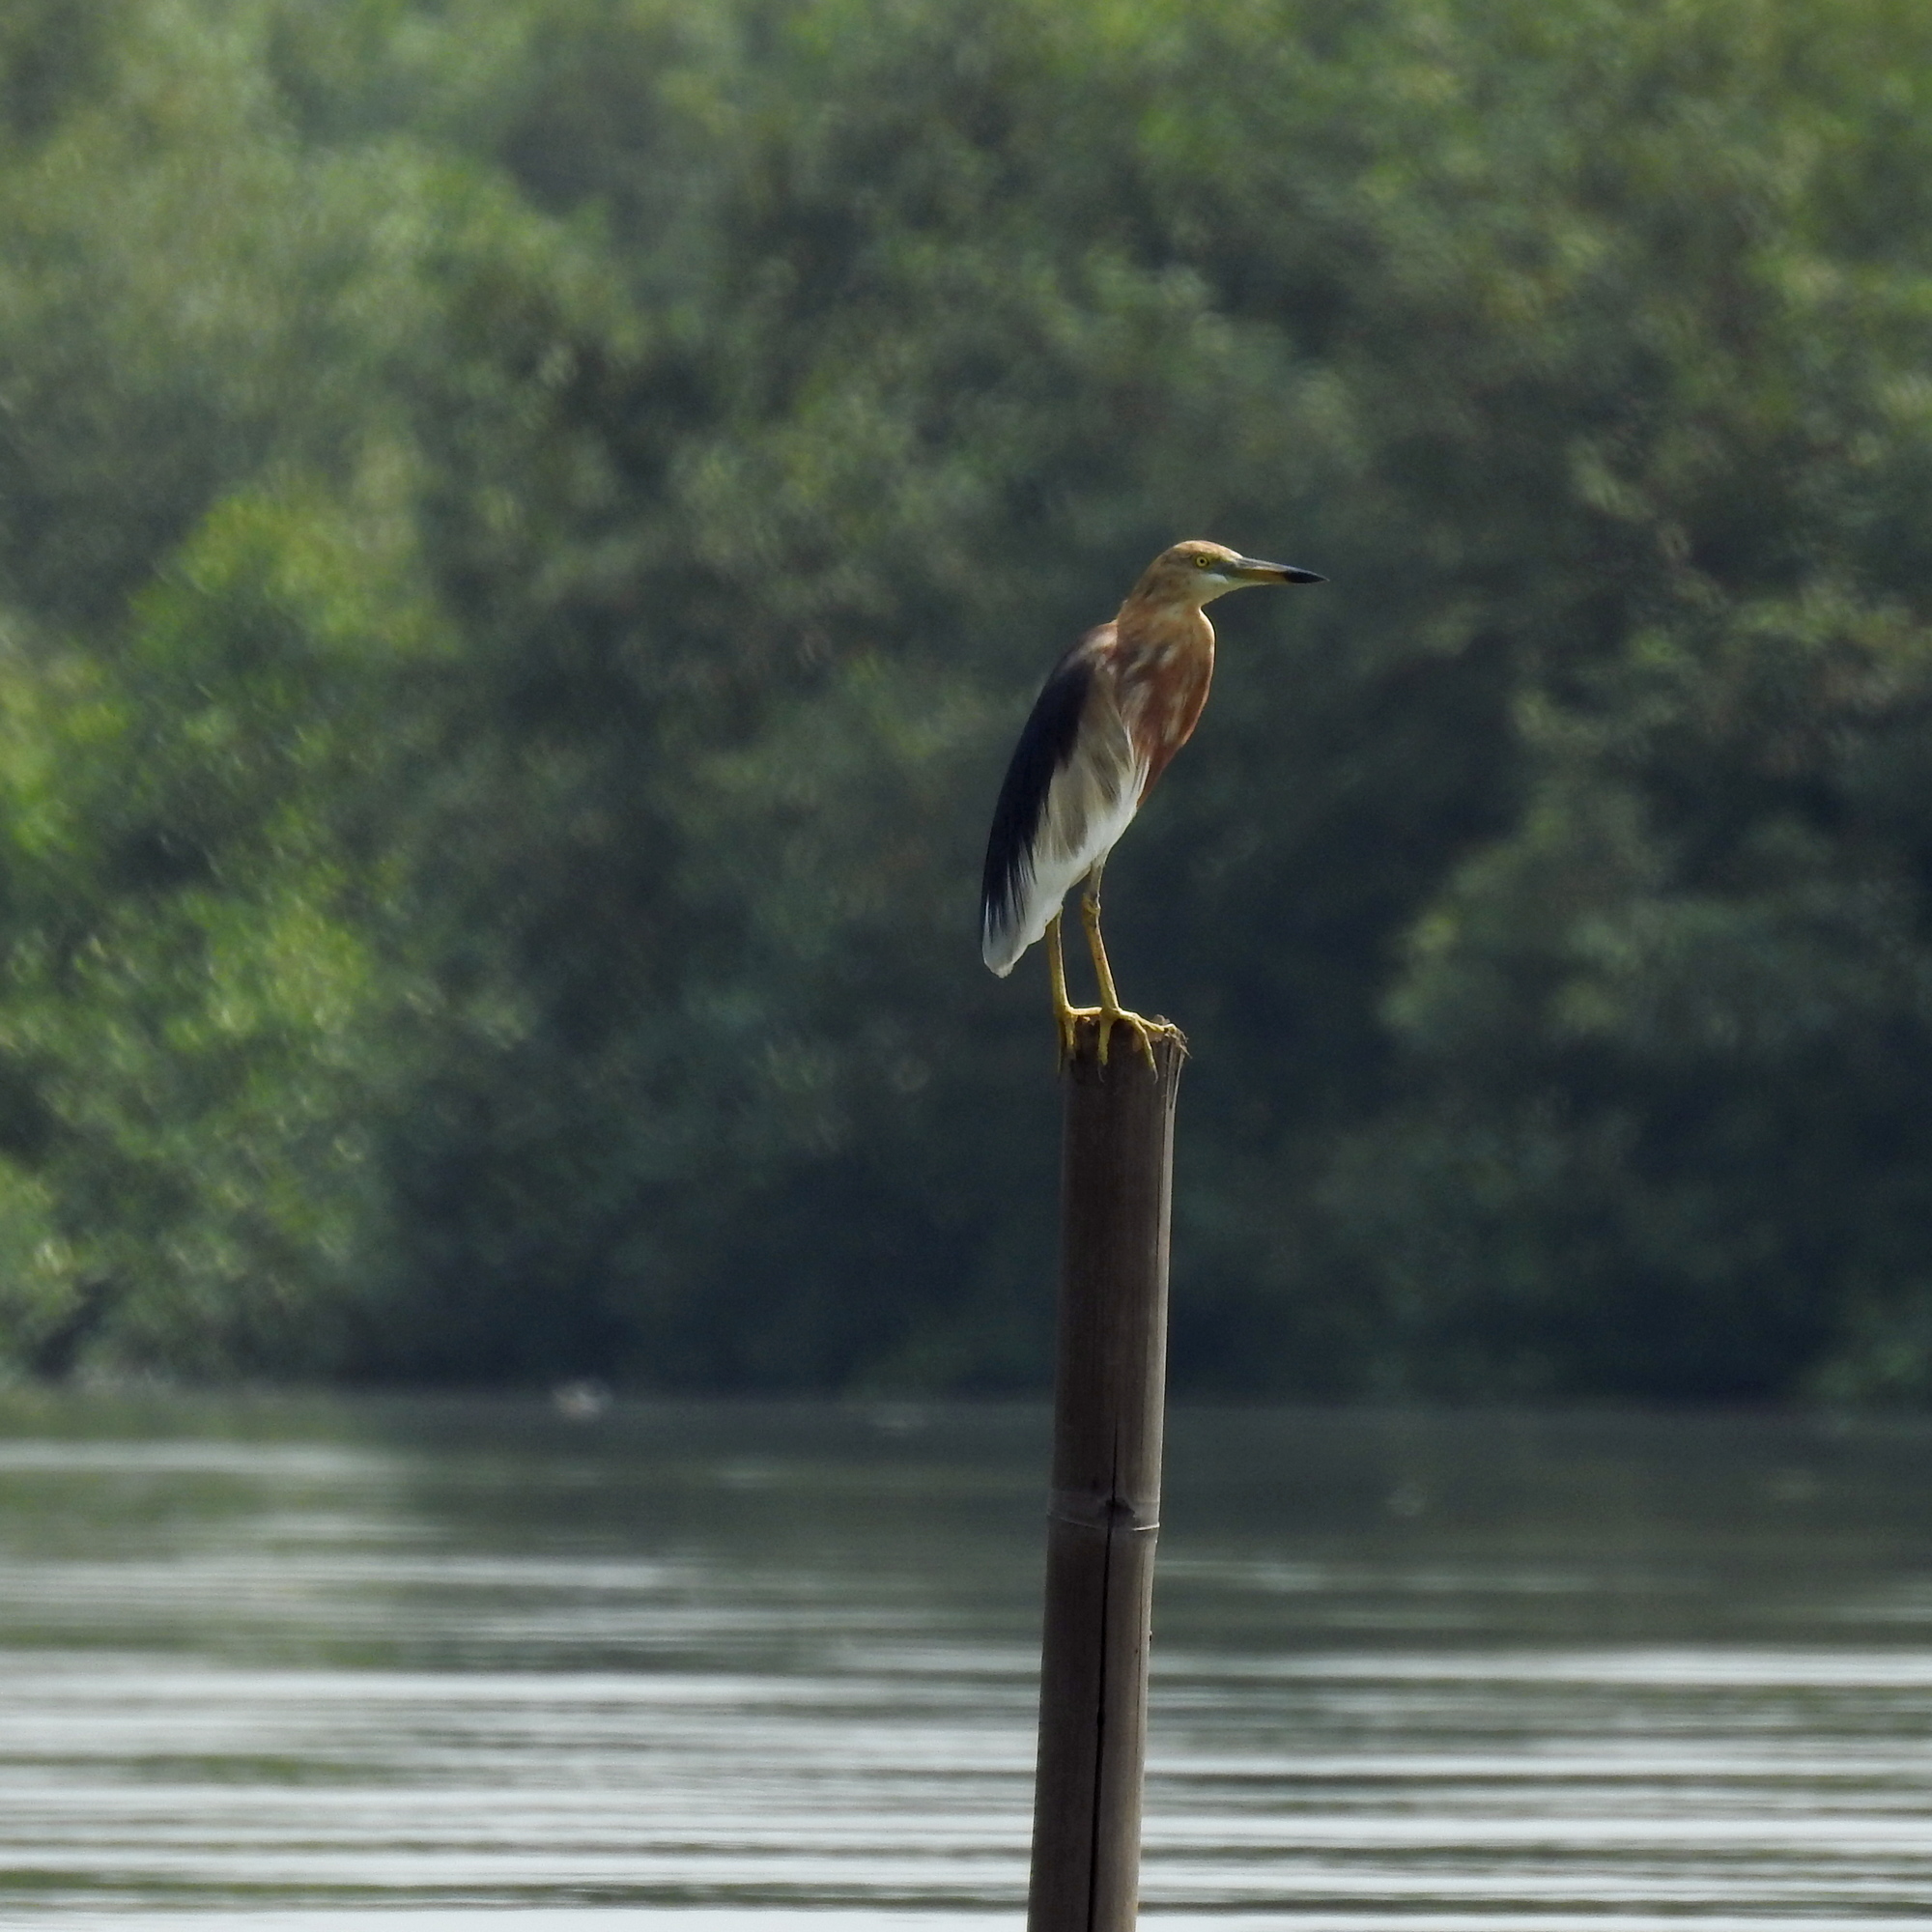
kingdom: Animalia
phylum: Chordata
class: Aves
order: Pelecaniformes
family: Ardeidae
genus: Ardeola
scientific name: Ardeola speciosa
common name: Javan pond heron
